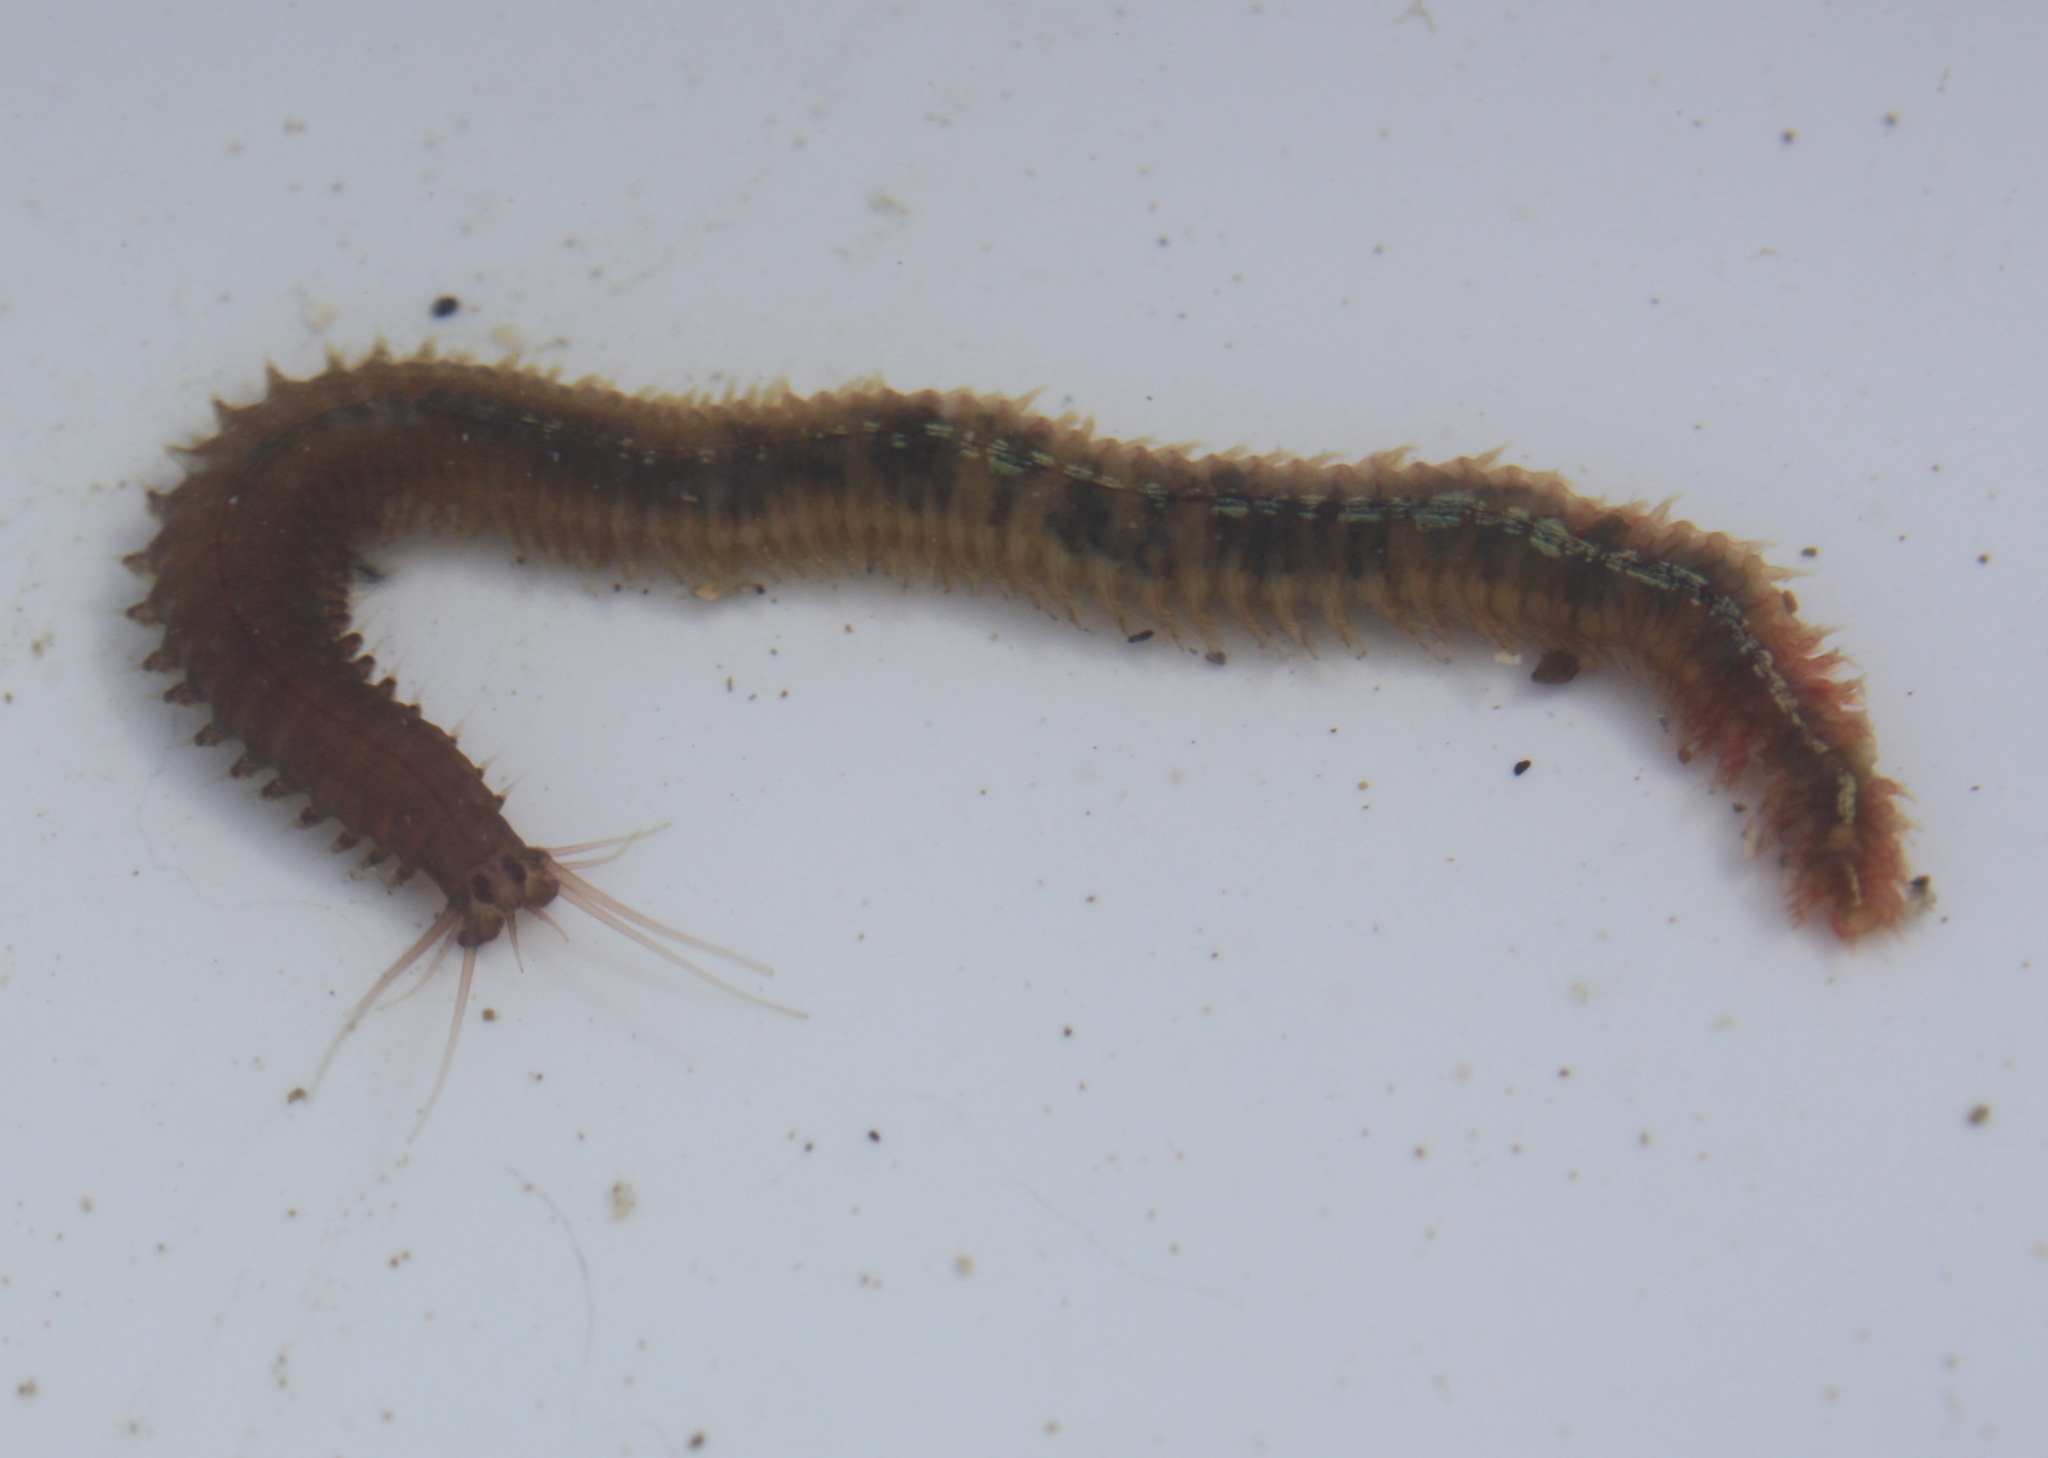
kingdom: Animalia
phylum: Annelida
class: Polychaeta
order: Phyllodocida
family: Nereididae
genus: Platynereis
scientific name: Platynereis bicanaliculata
